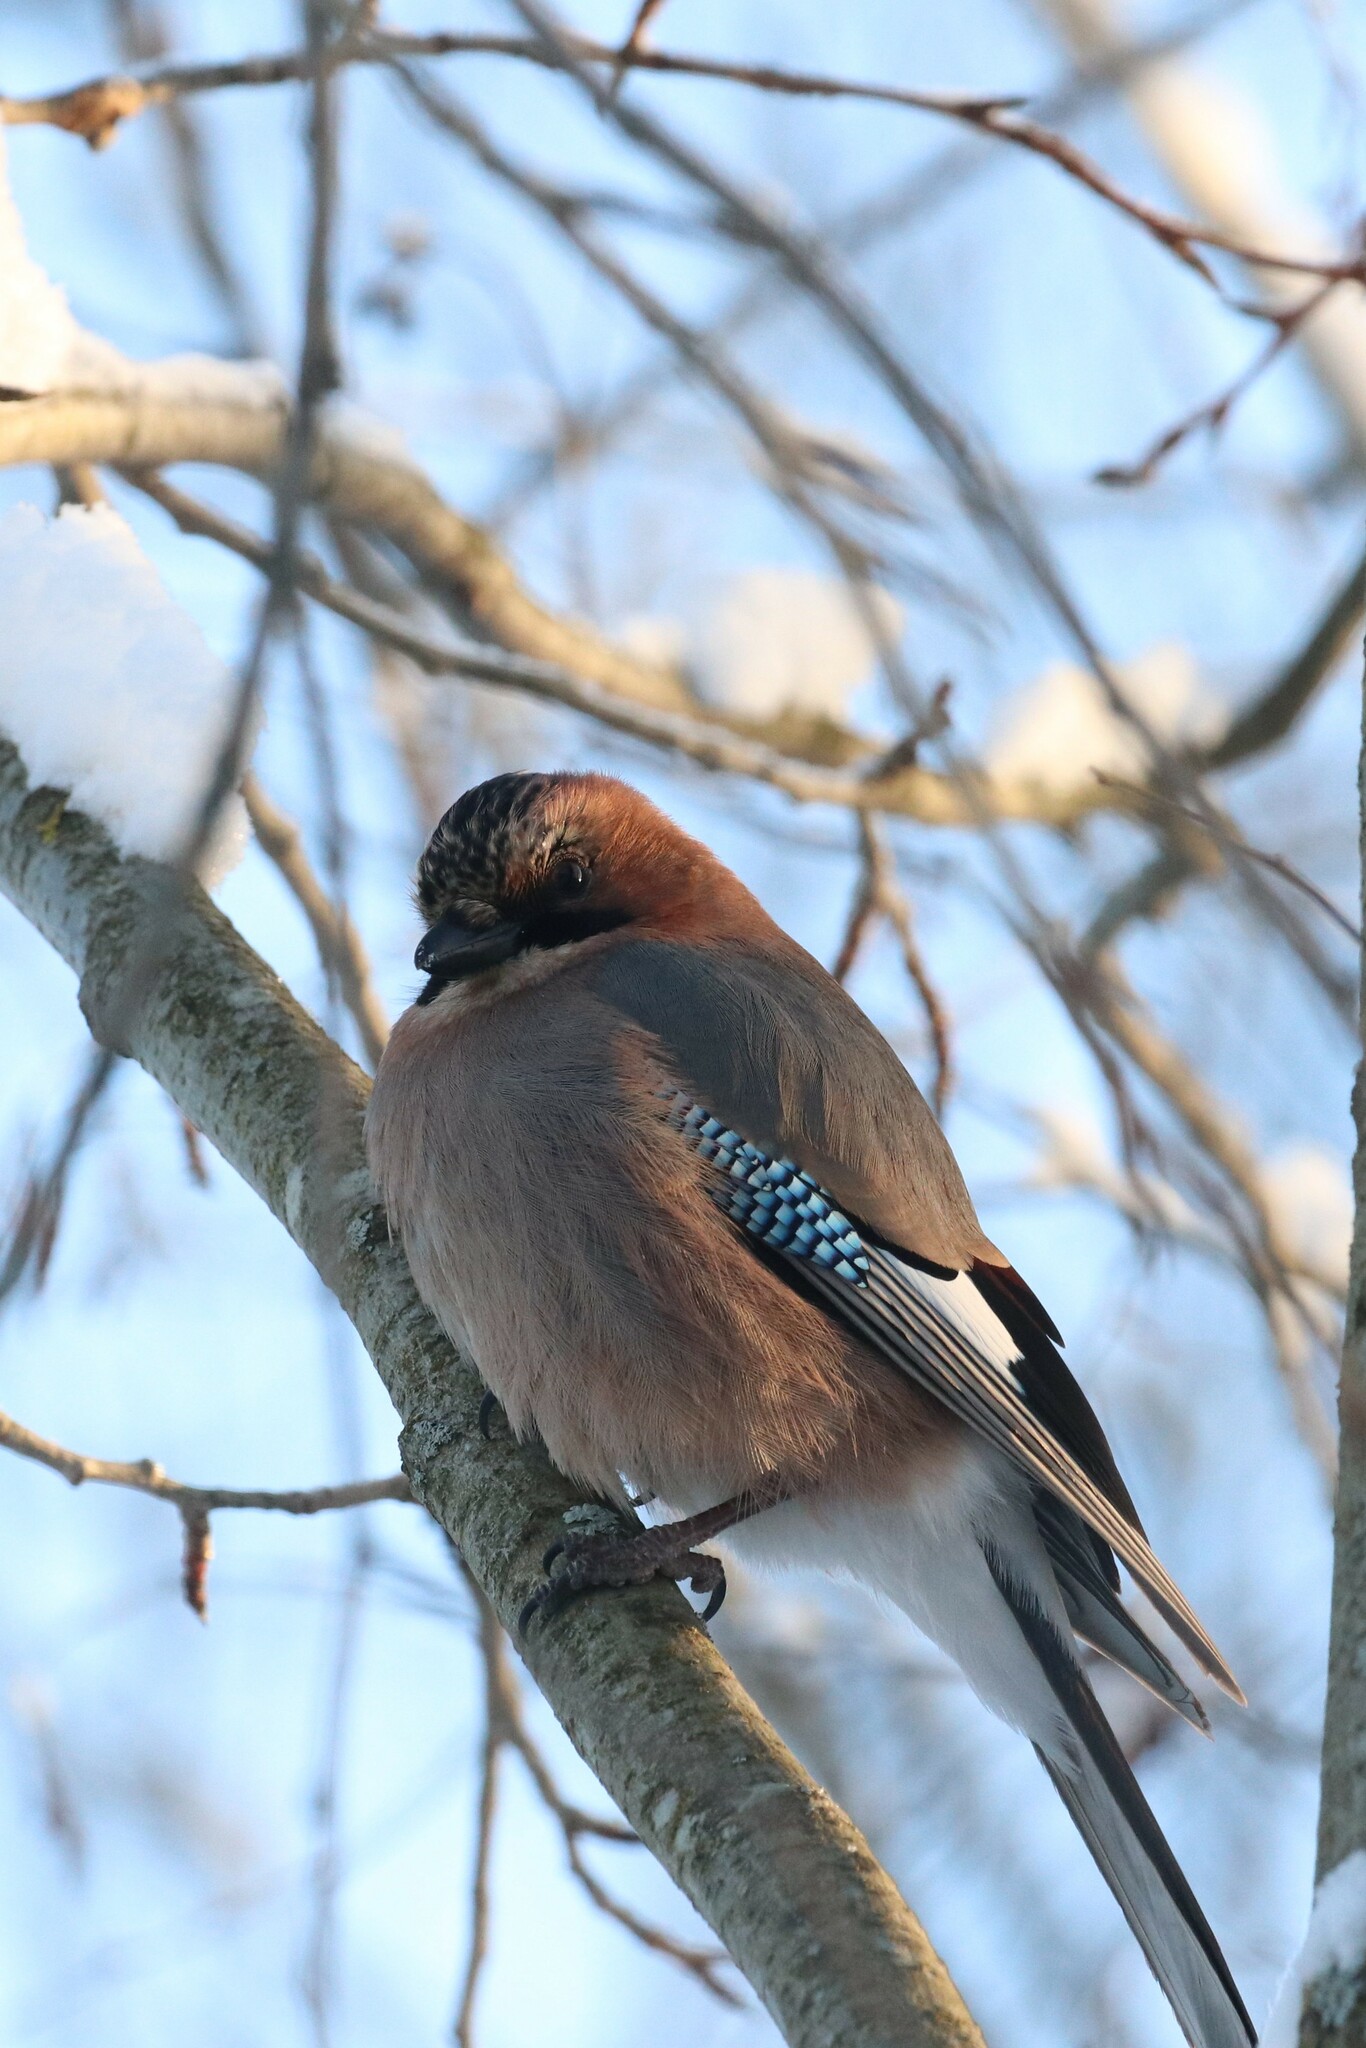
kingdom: Animalia
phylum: Chordata
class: Aves
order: Passeriformes
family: Corvidae
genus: Garrulus
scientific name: Garrulus glandarius
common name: Eurasian jay
